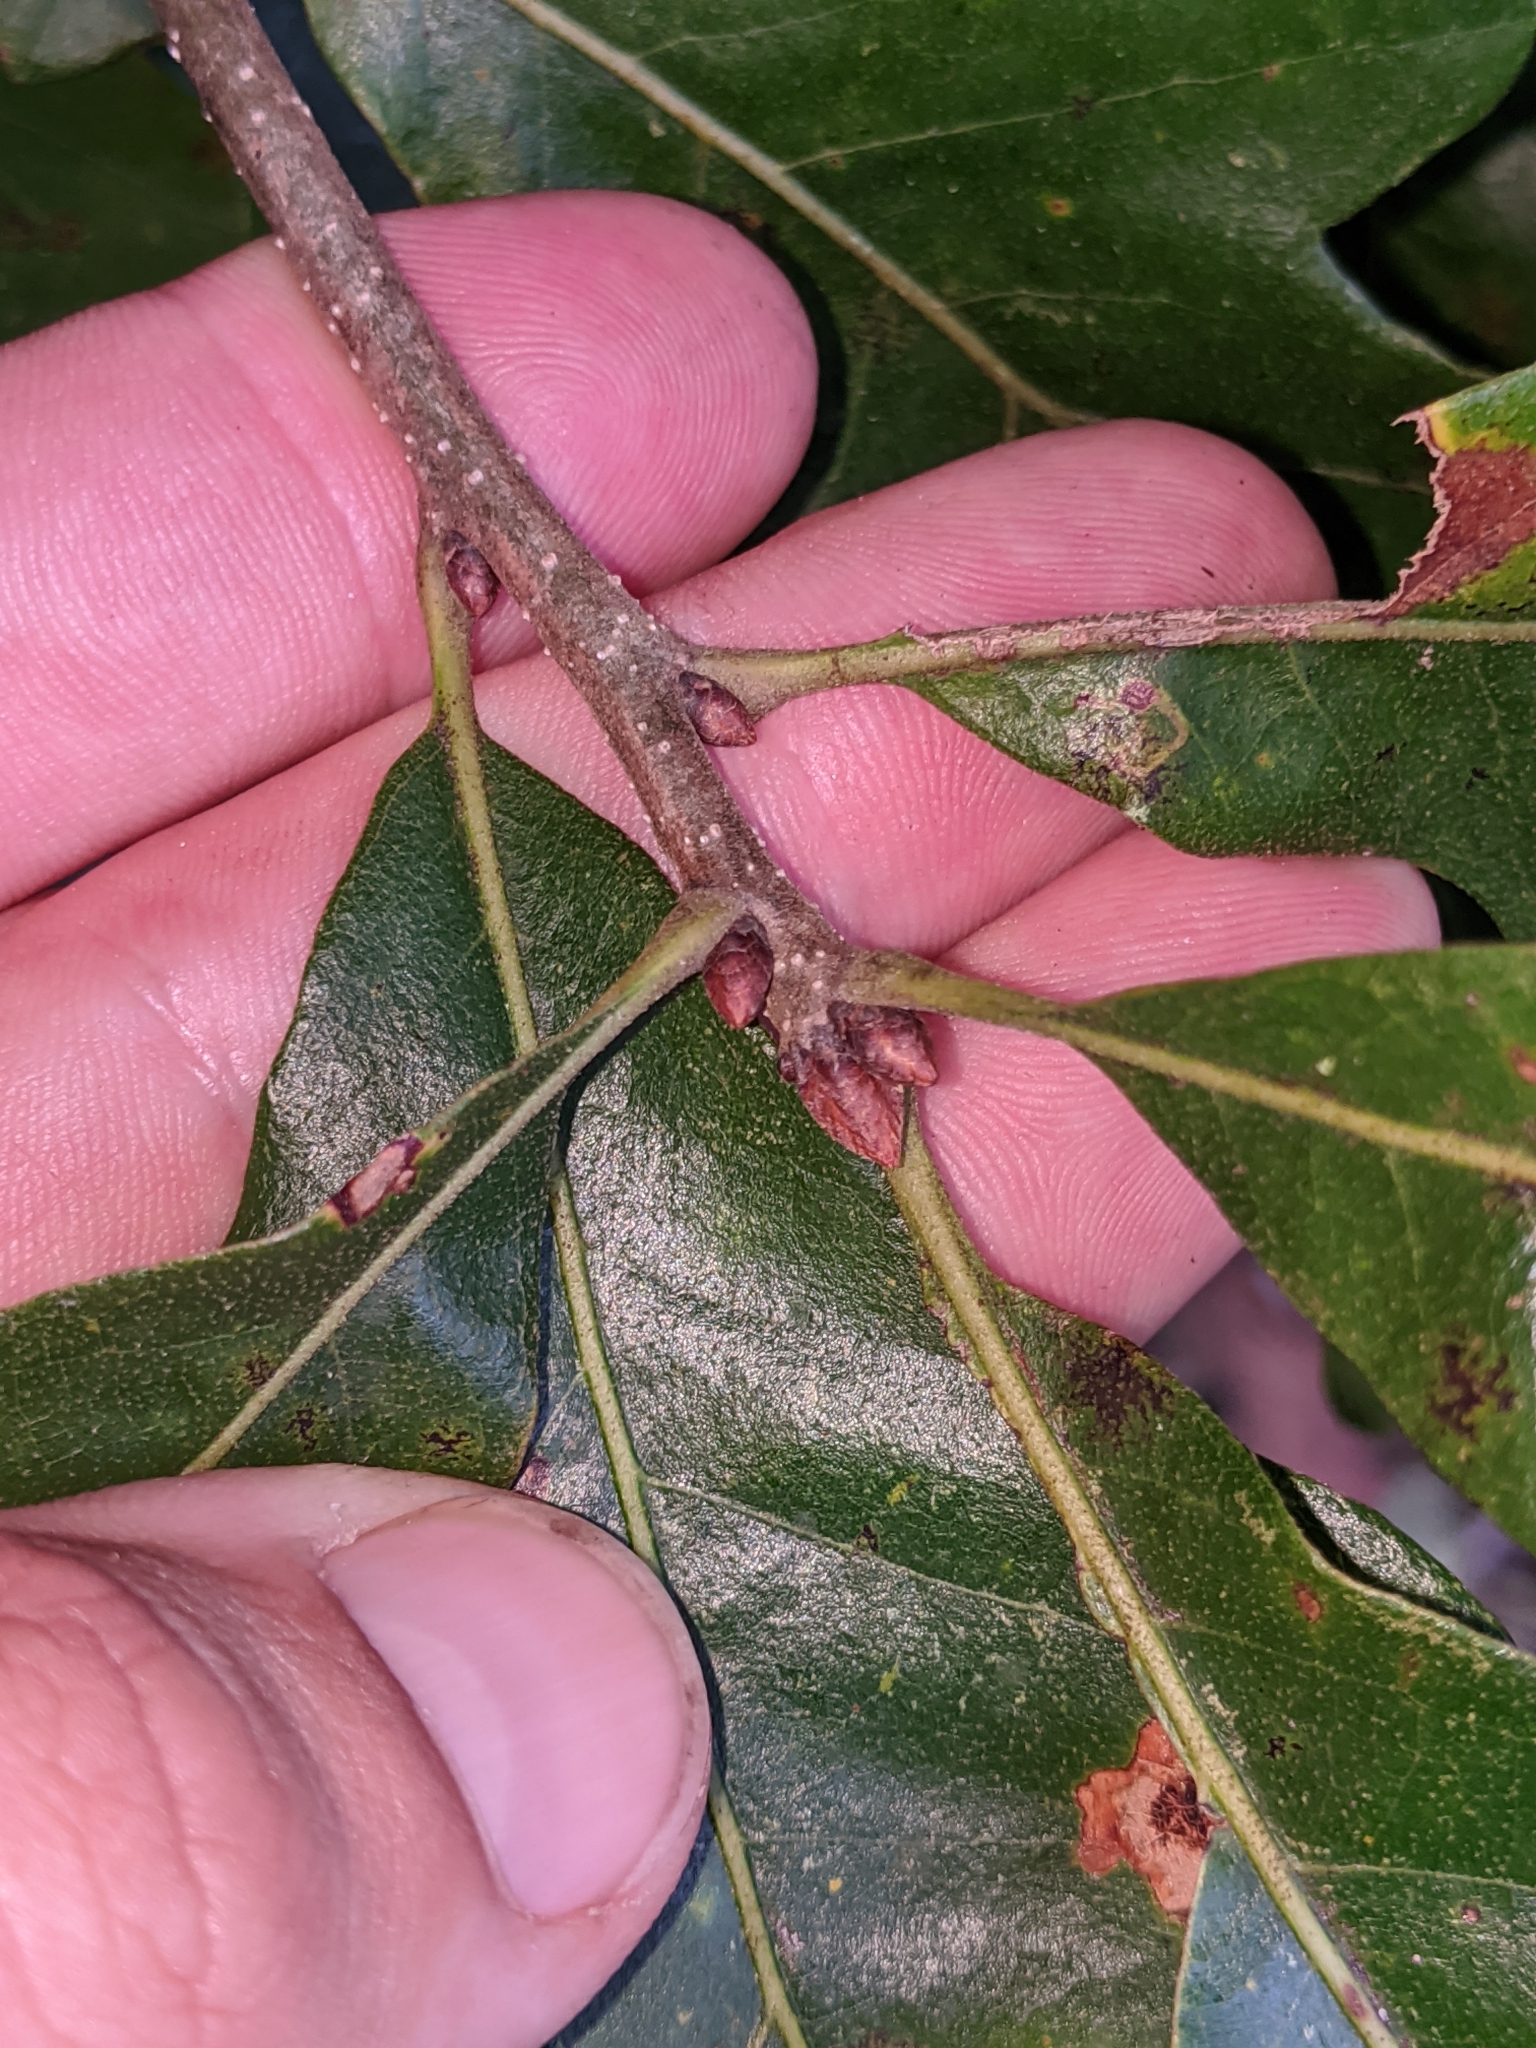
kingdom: Plantae
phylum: Tracheophyta
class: Magnoliopsida
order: Fagales
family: Fagaceae
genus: Quercus
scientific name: Quercus stellata
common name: Post oak
